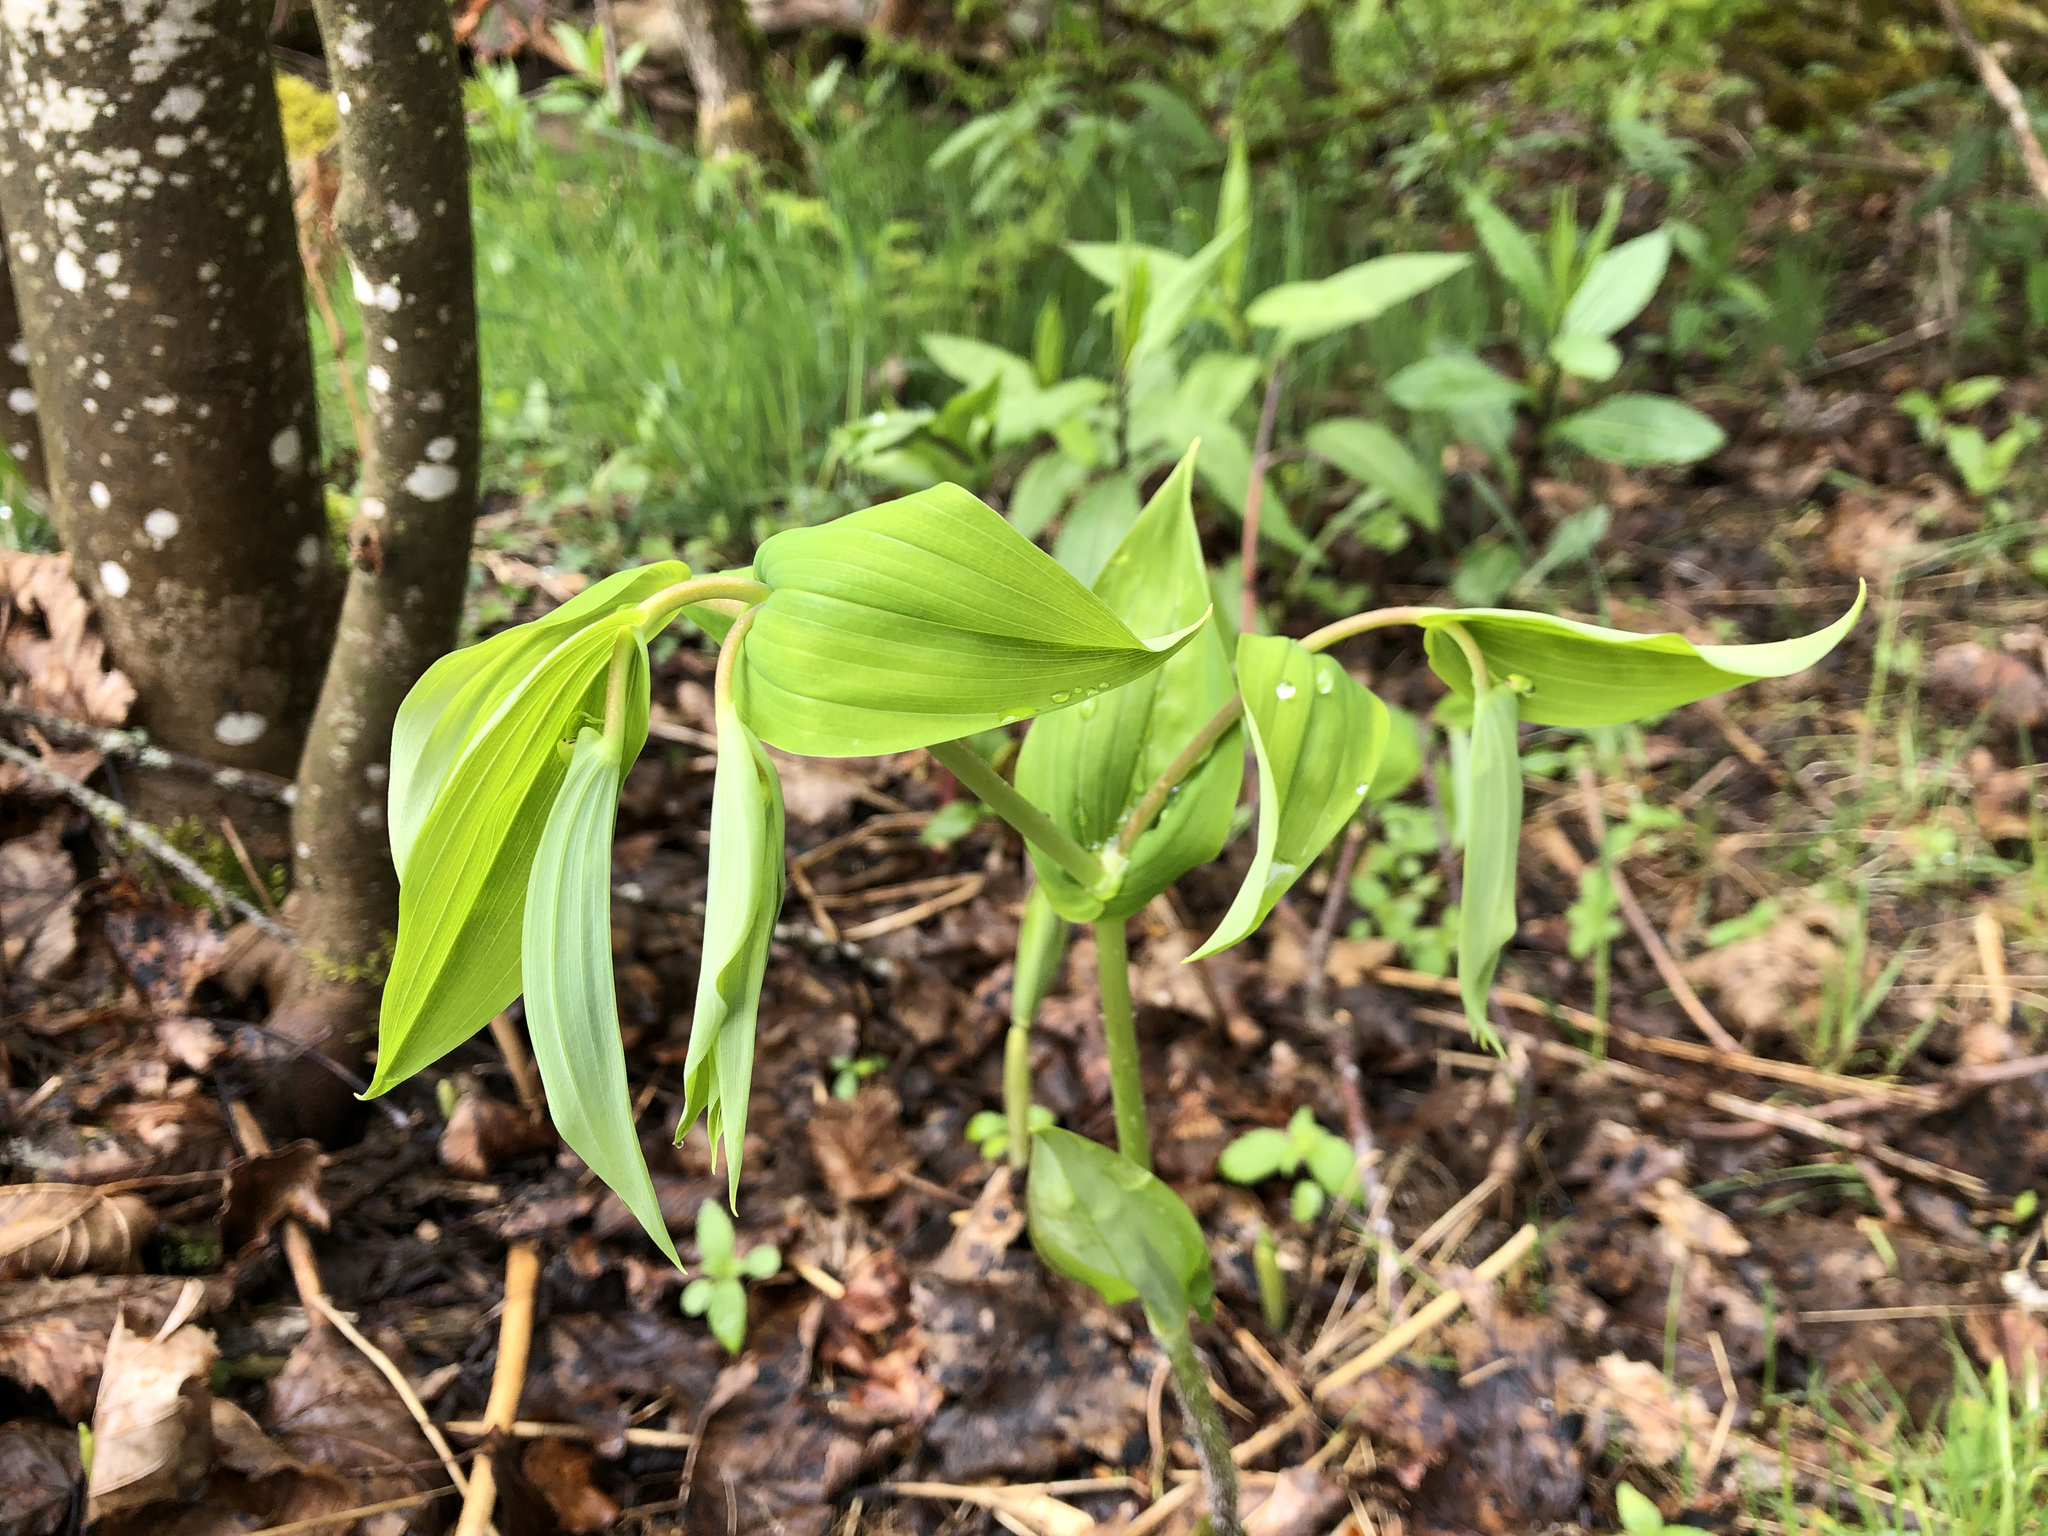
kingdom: Plantae
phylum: Tracheophyta
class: Liliopsida
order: Liliales
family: Liliaceae
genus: Streptopus
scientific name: Streptopus amplexifolius
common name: Clasp twisted stalk
